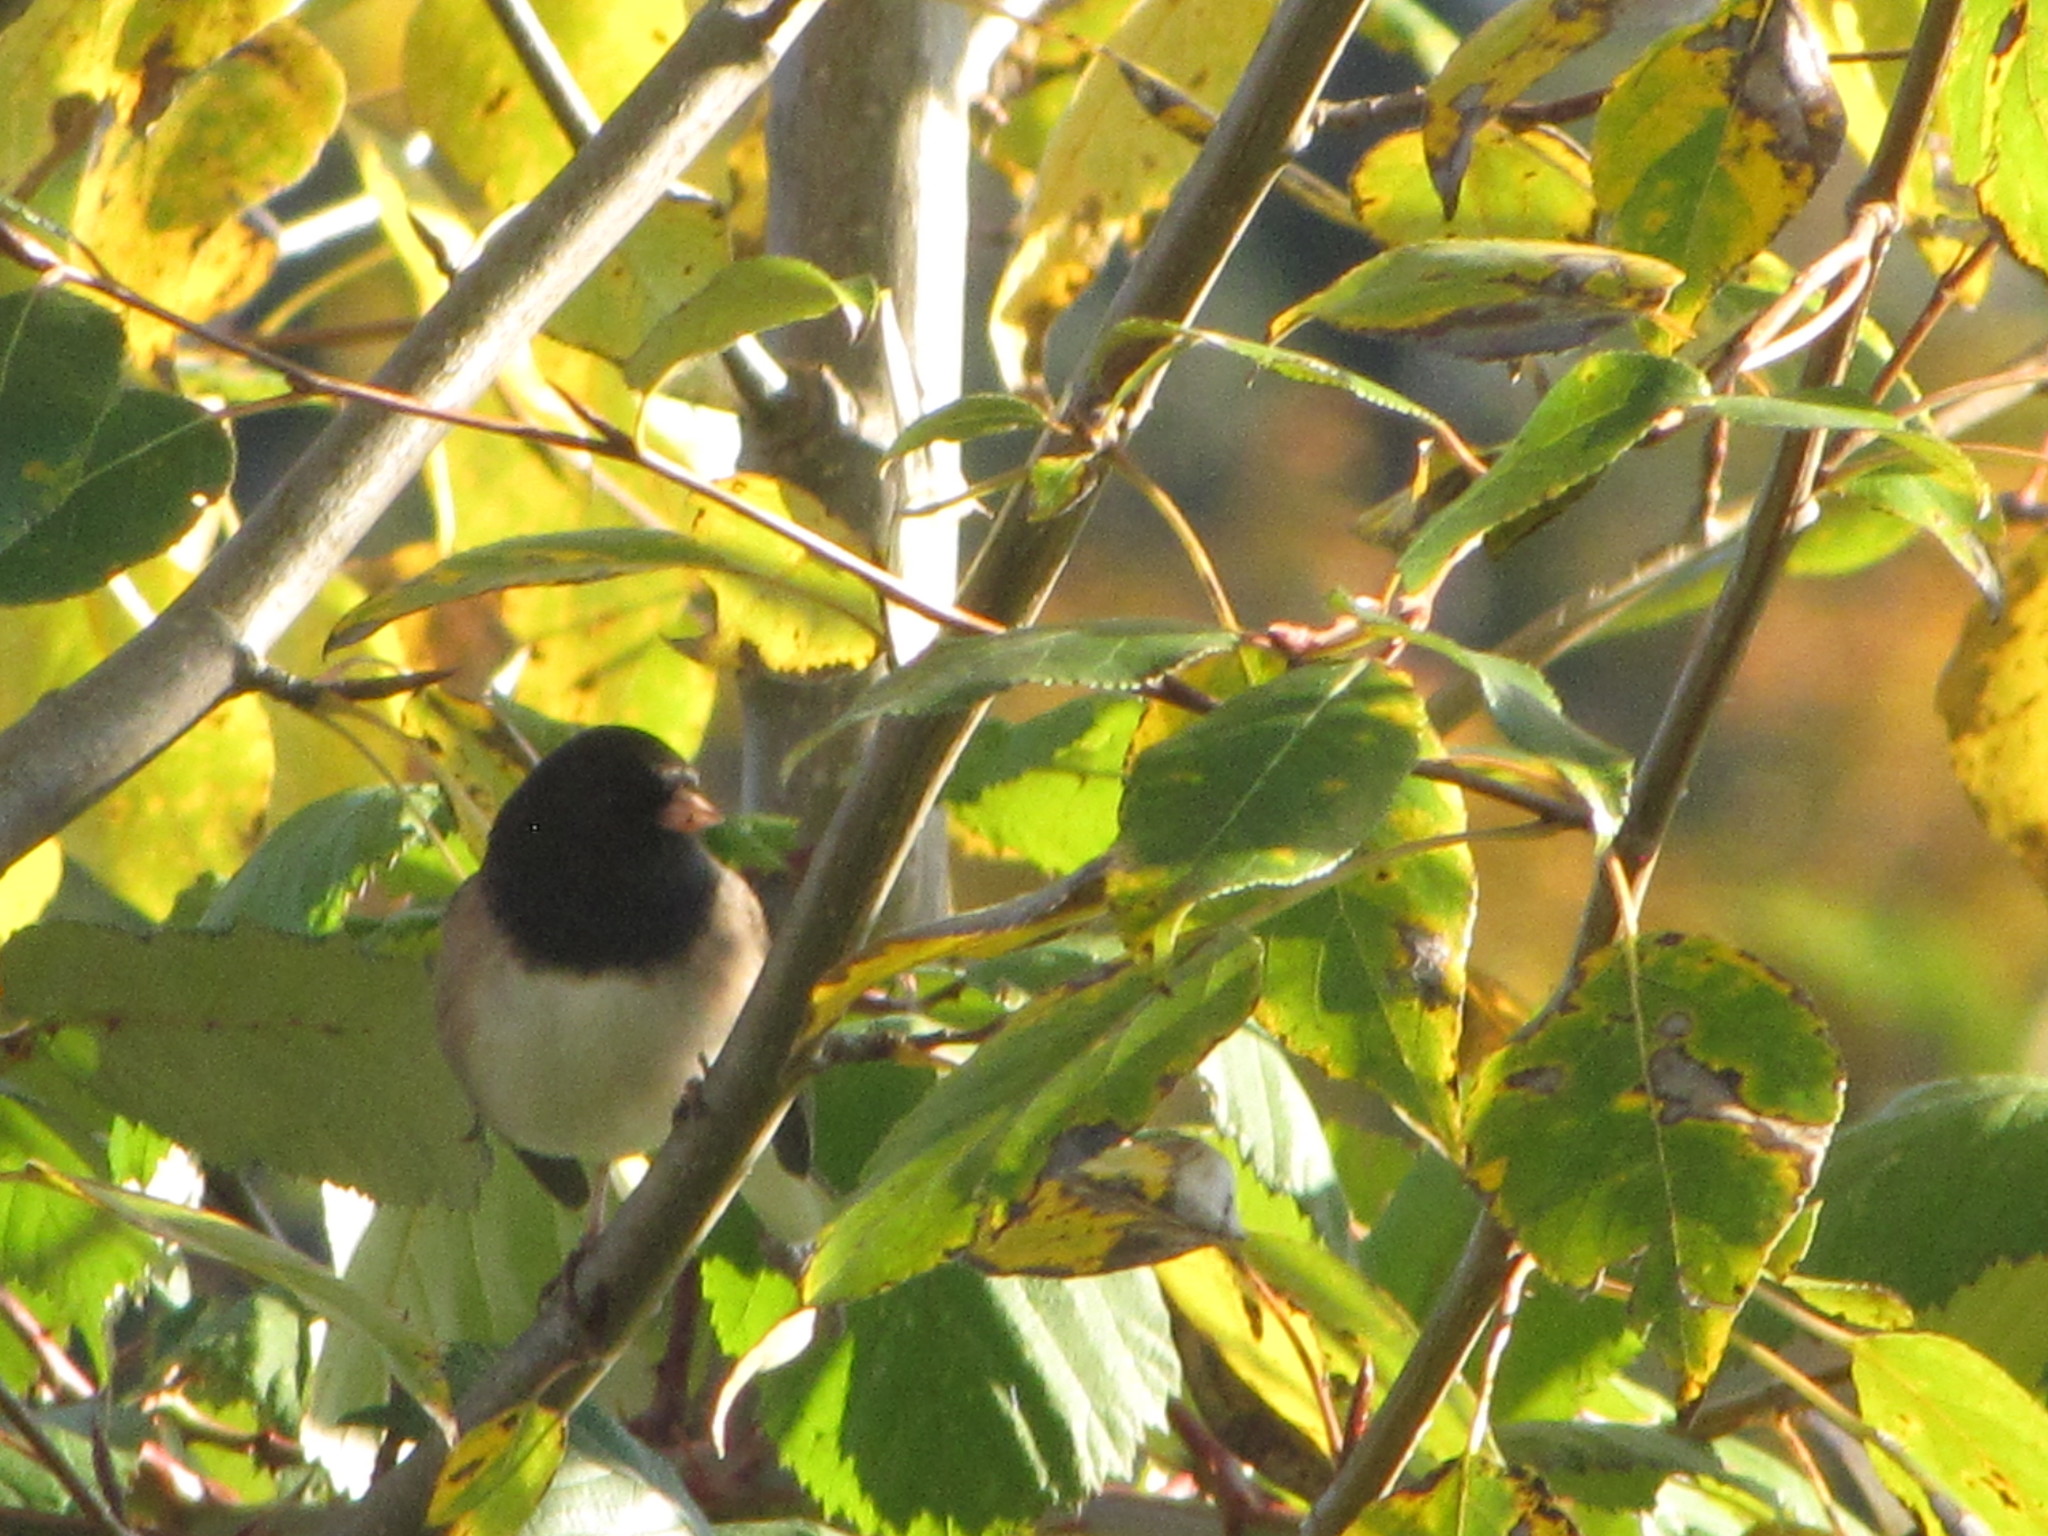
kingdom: Animalia
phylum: Chordata
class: Aves
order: Passeriformes
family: Passerellidae
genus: Junco
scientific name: Junco hyemalis
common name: Dark-eyed junco
